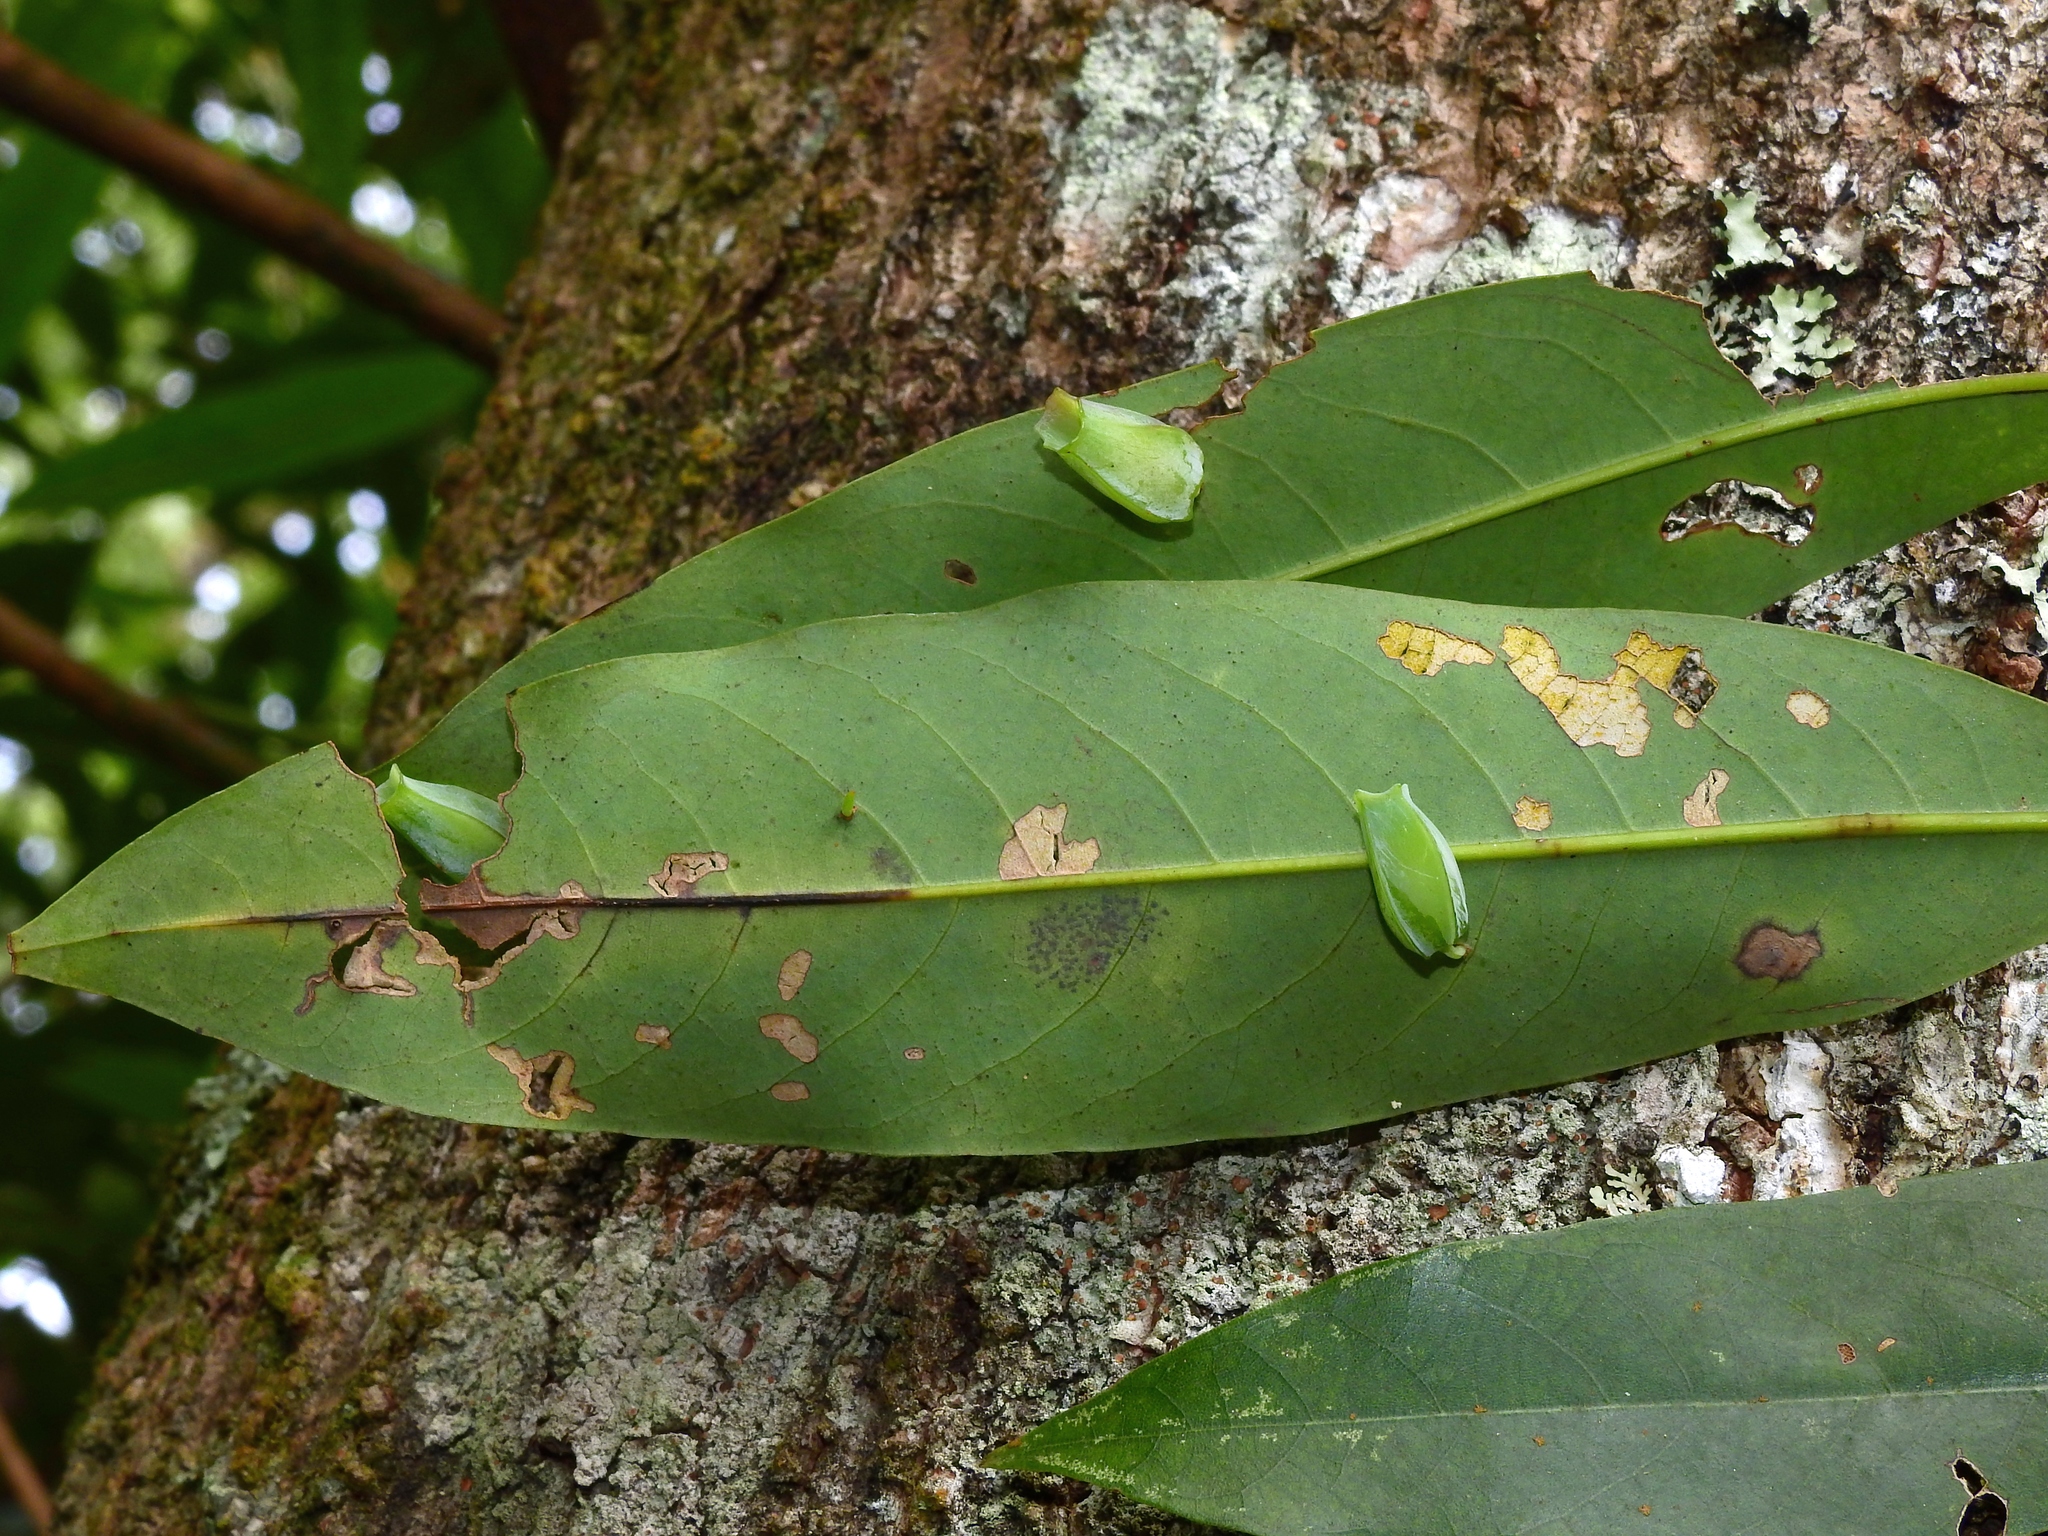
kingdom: Animalia
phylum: Arthropoda
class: Insecta
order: Diptera
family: Cecidomyiidae
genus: Daphnephila
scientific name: Daphnephila urnicola
